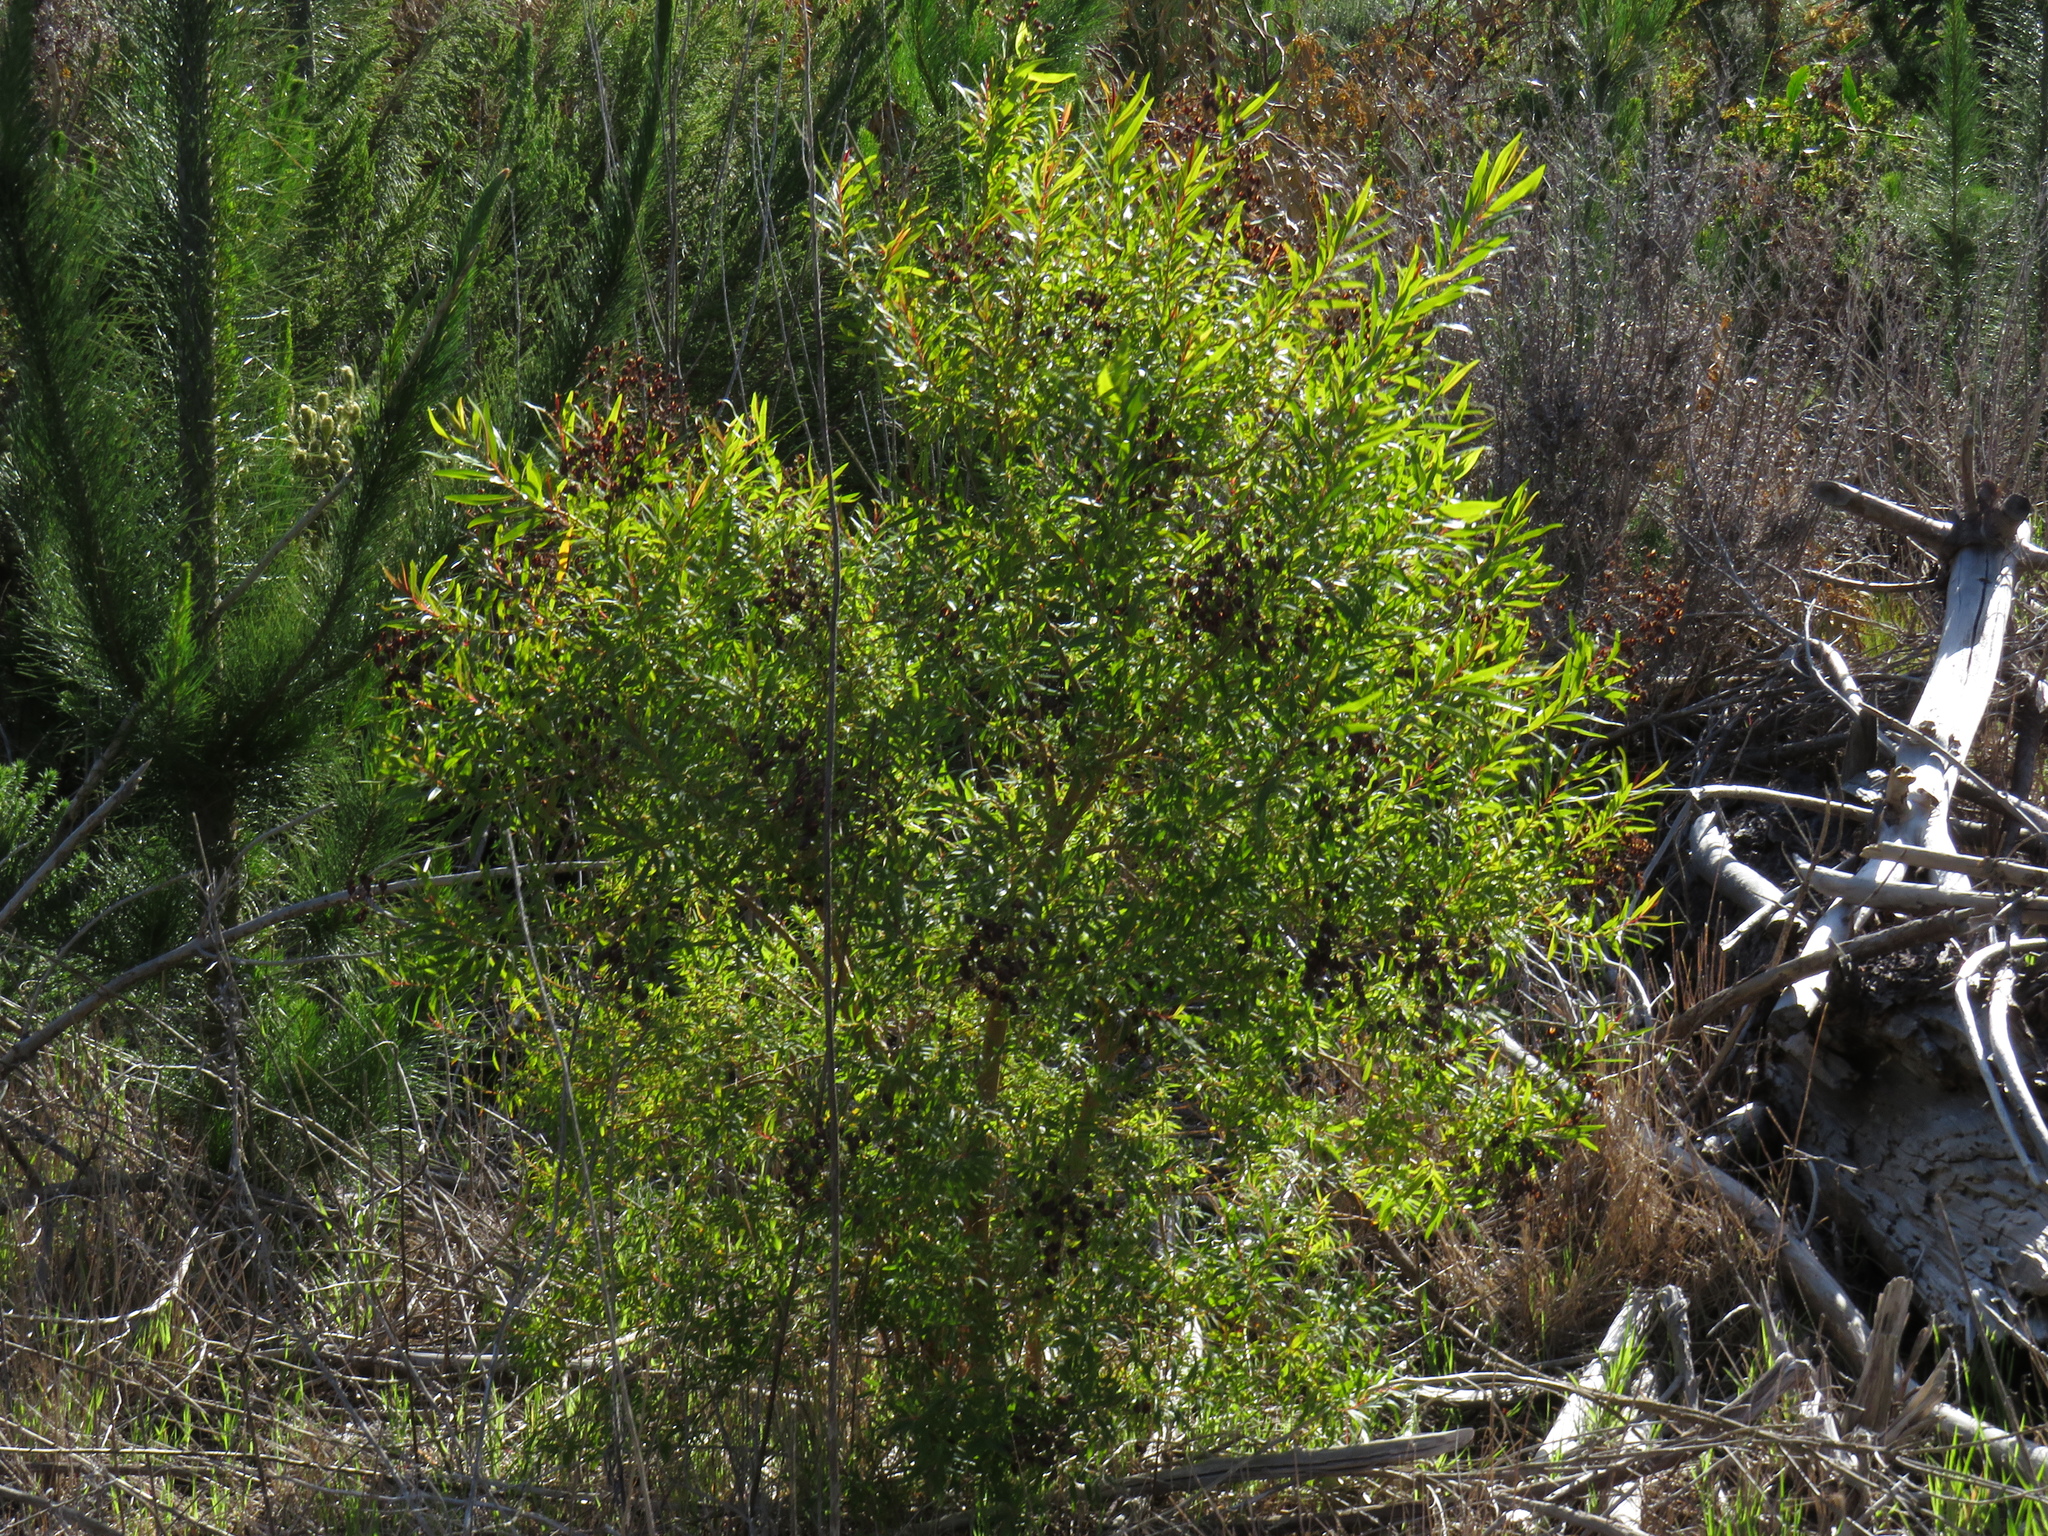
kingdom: Plantae
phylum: Tracheophyta
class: Magnoliopsida
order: Malpighiales
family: Hypericaceae
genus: Hypericum
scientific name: Hypericum canariense
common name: Canary island st. johnswort
